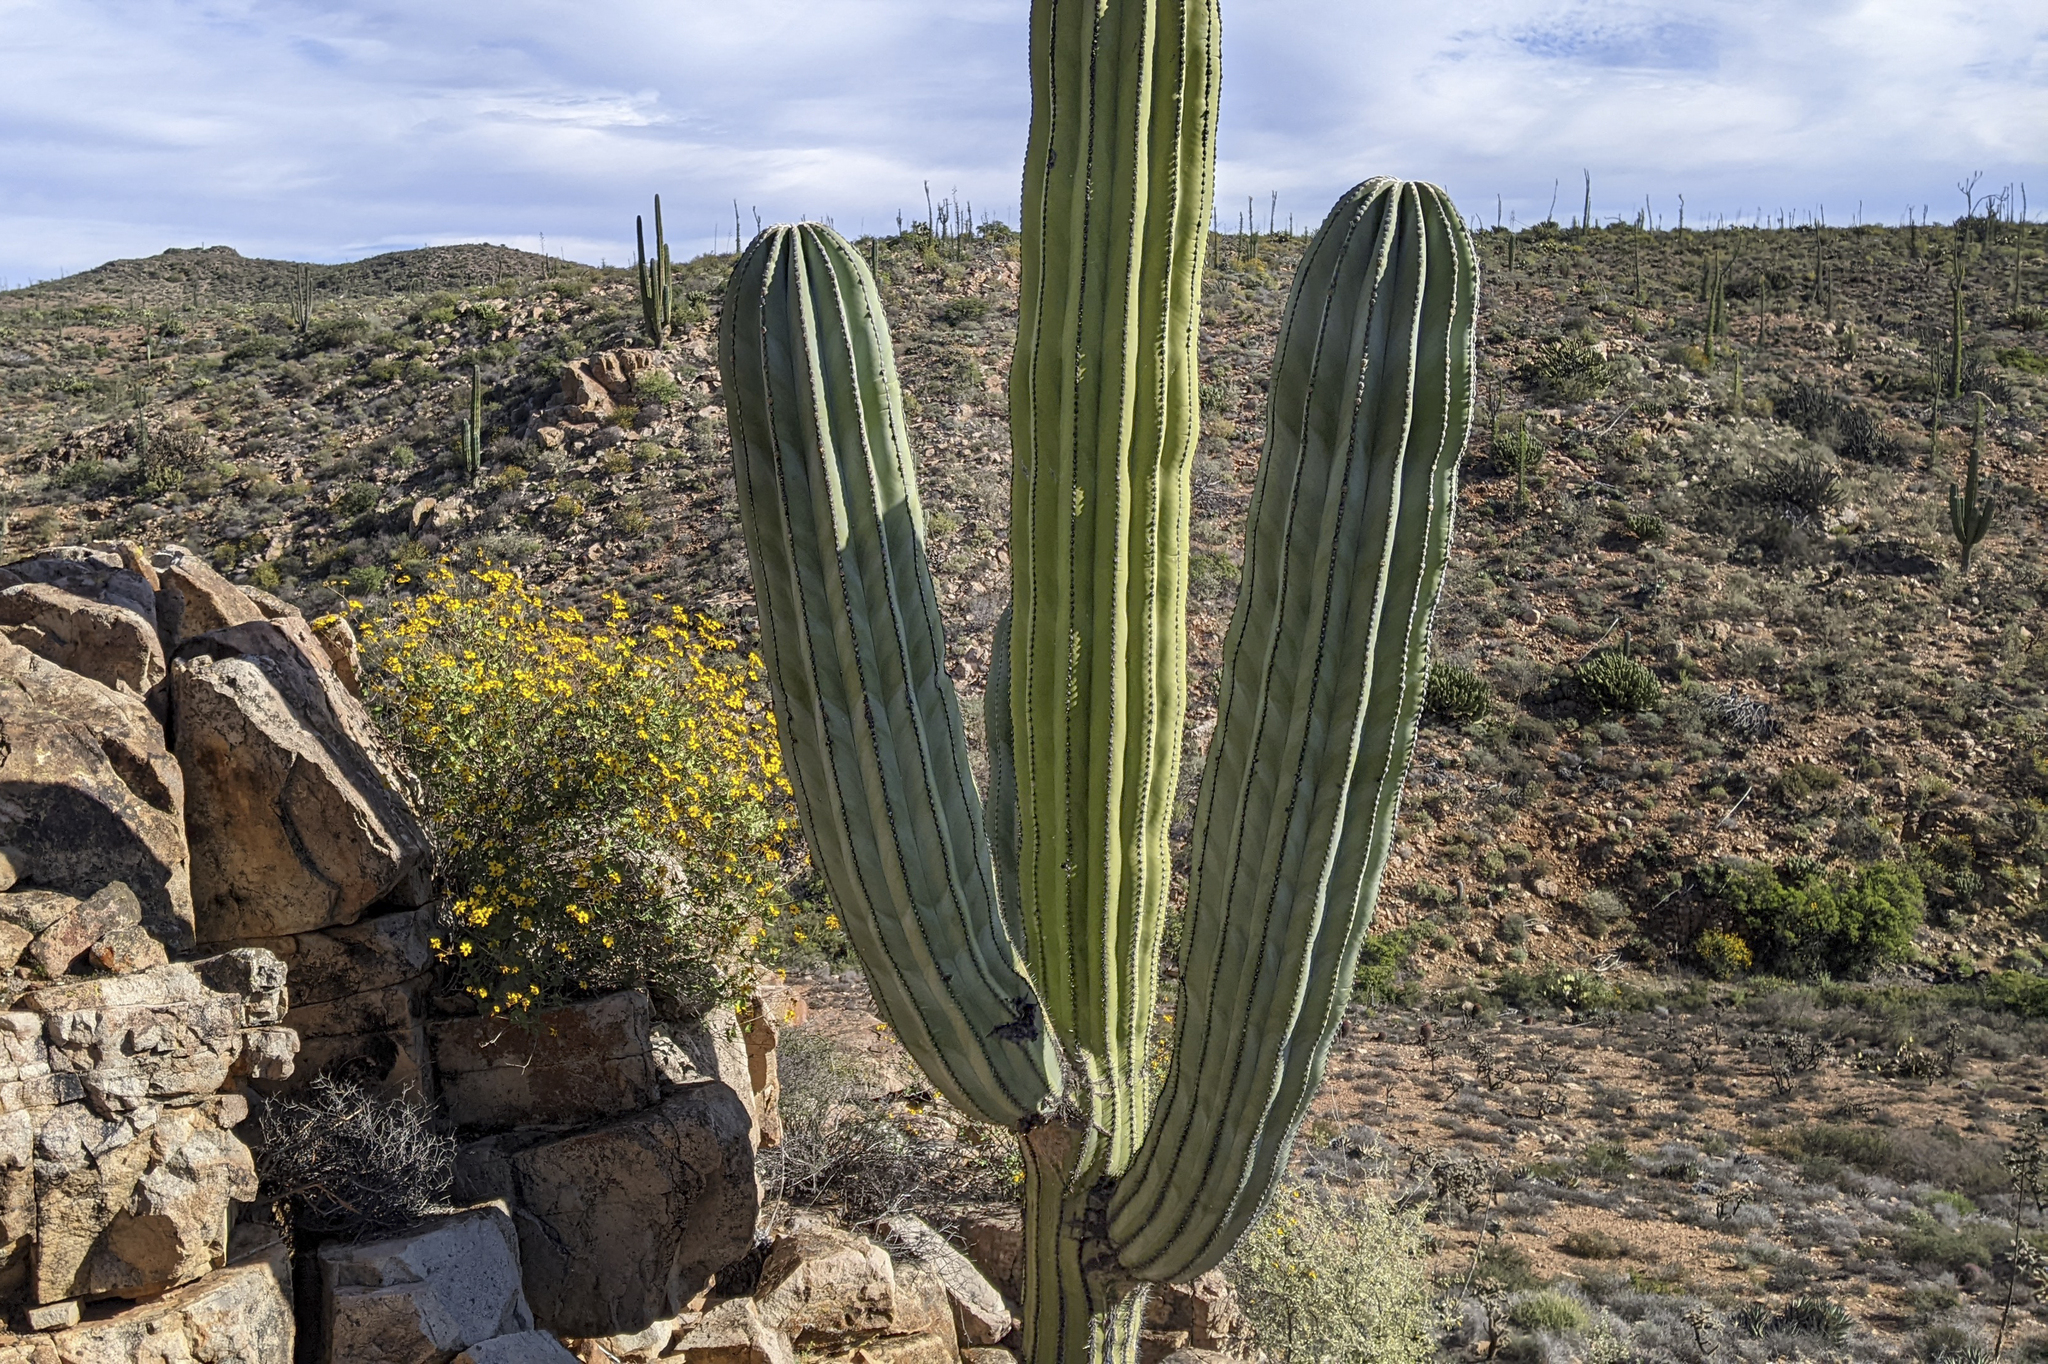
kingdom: Plantae
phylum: Tracheophyta
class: Magnoliopsida
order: Caryophyllales
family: Cactaceae
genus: Pachycereus
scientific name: Pachycereus pringlei
